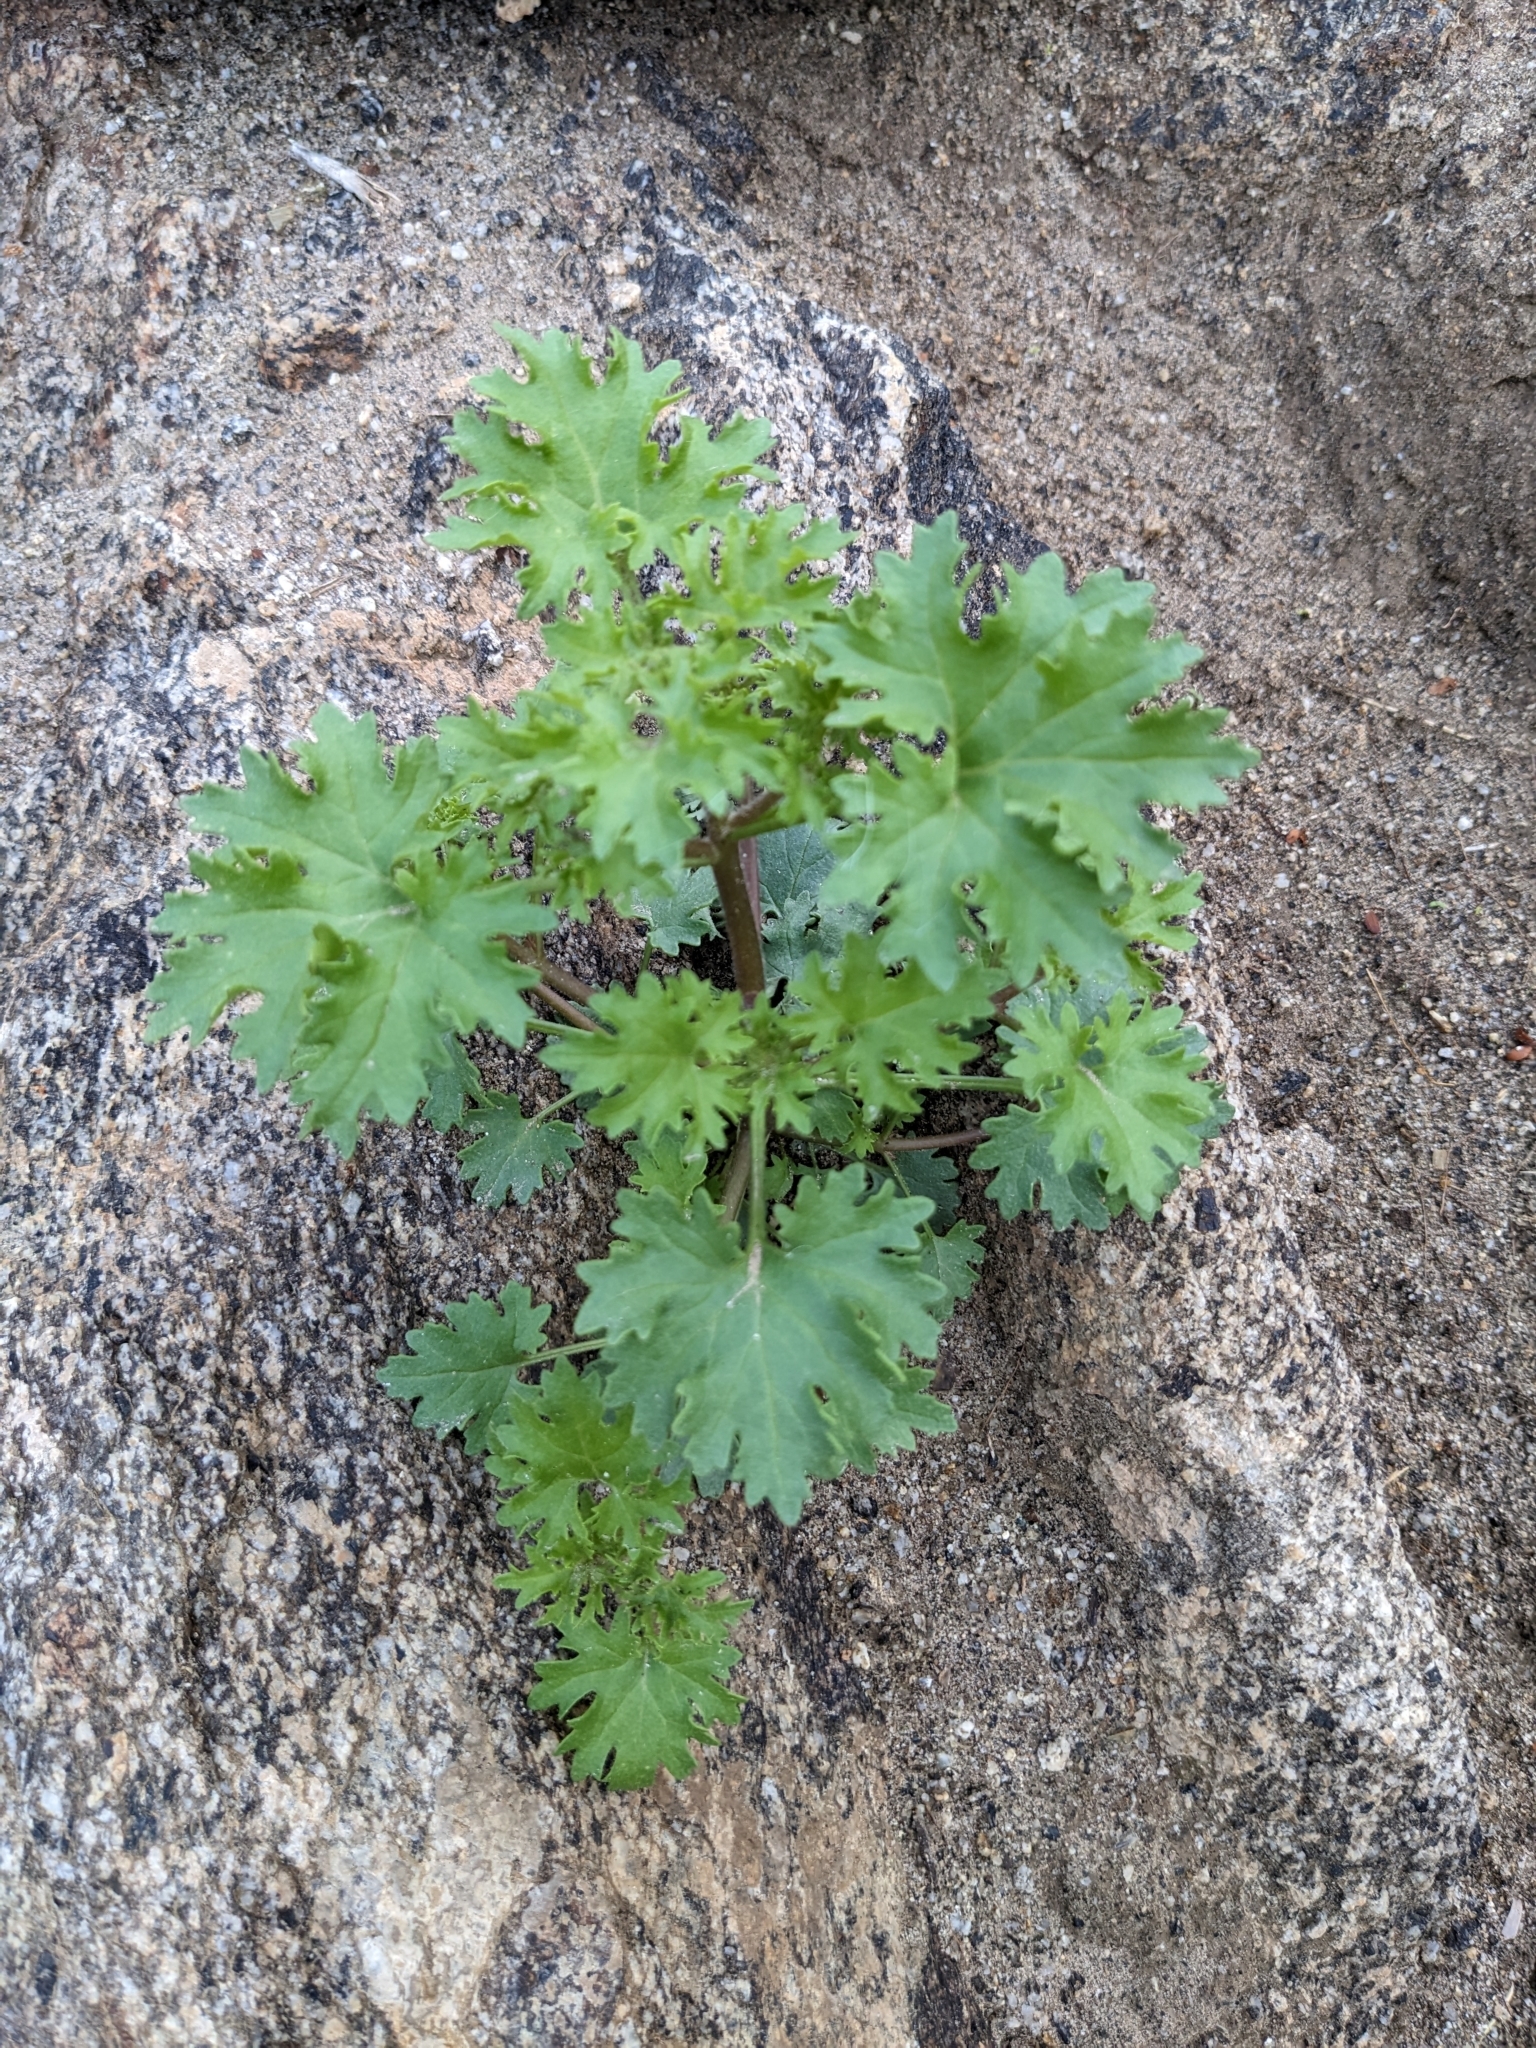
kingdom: Plantae
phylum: Tracheophyta
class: Magnoliopsida
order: Asterales
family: Asteraceae
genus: Laphamia
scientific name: Laphamia emoryi
